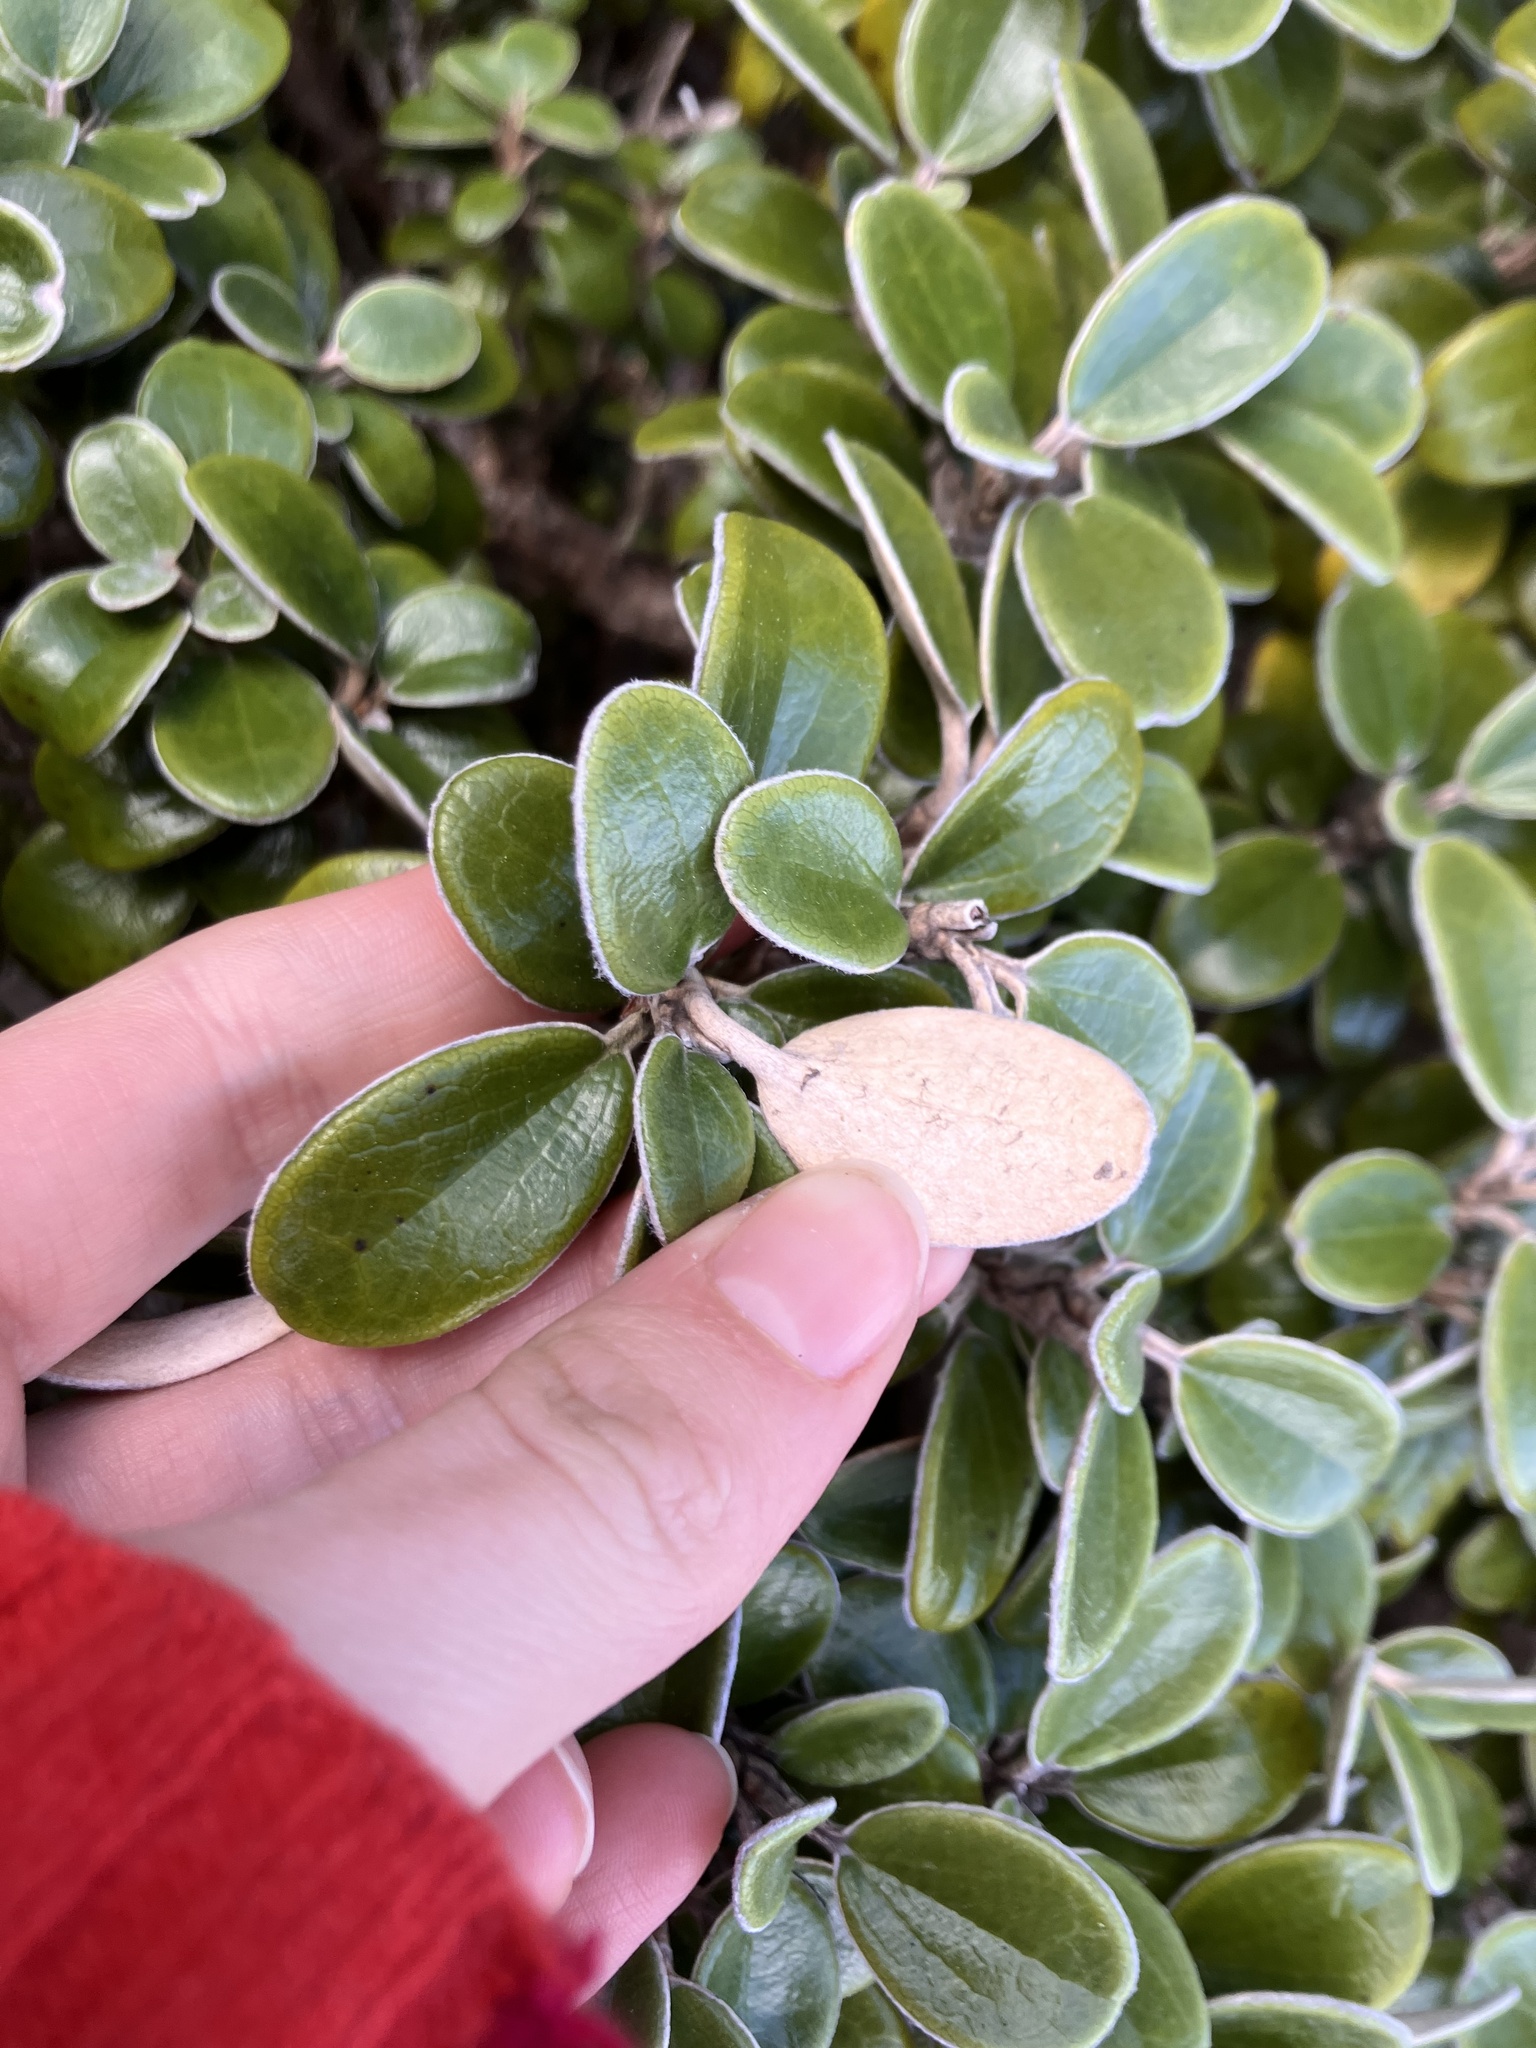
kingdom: Plantae
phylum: Tracheophyta
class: Magnoliopsida
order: Asterales
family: Asteraceae
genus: Brachyglottis
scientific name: Brachyglottis bidwillii
